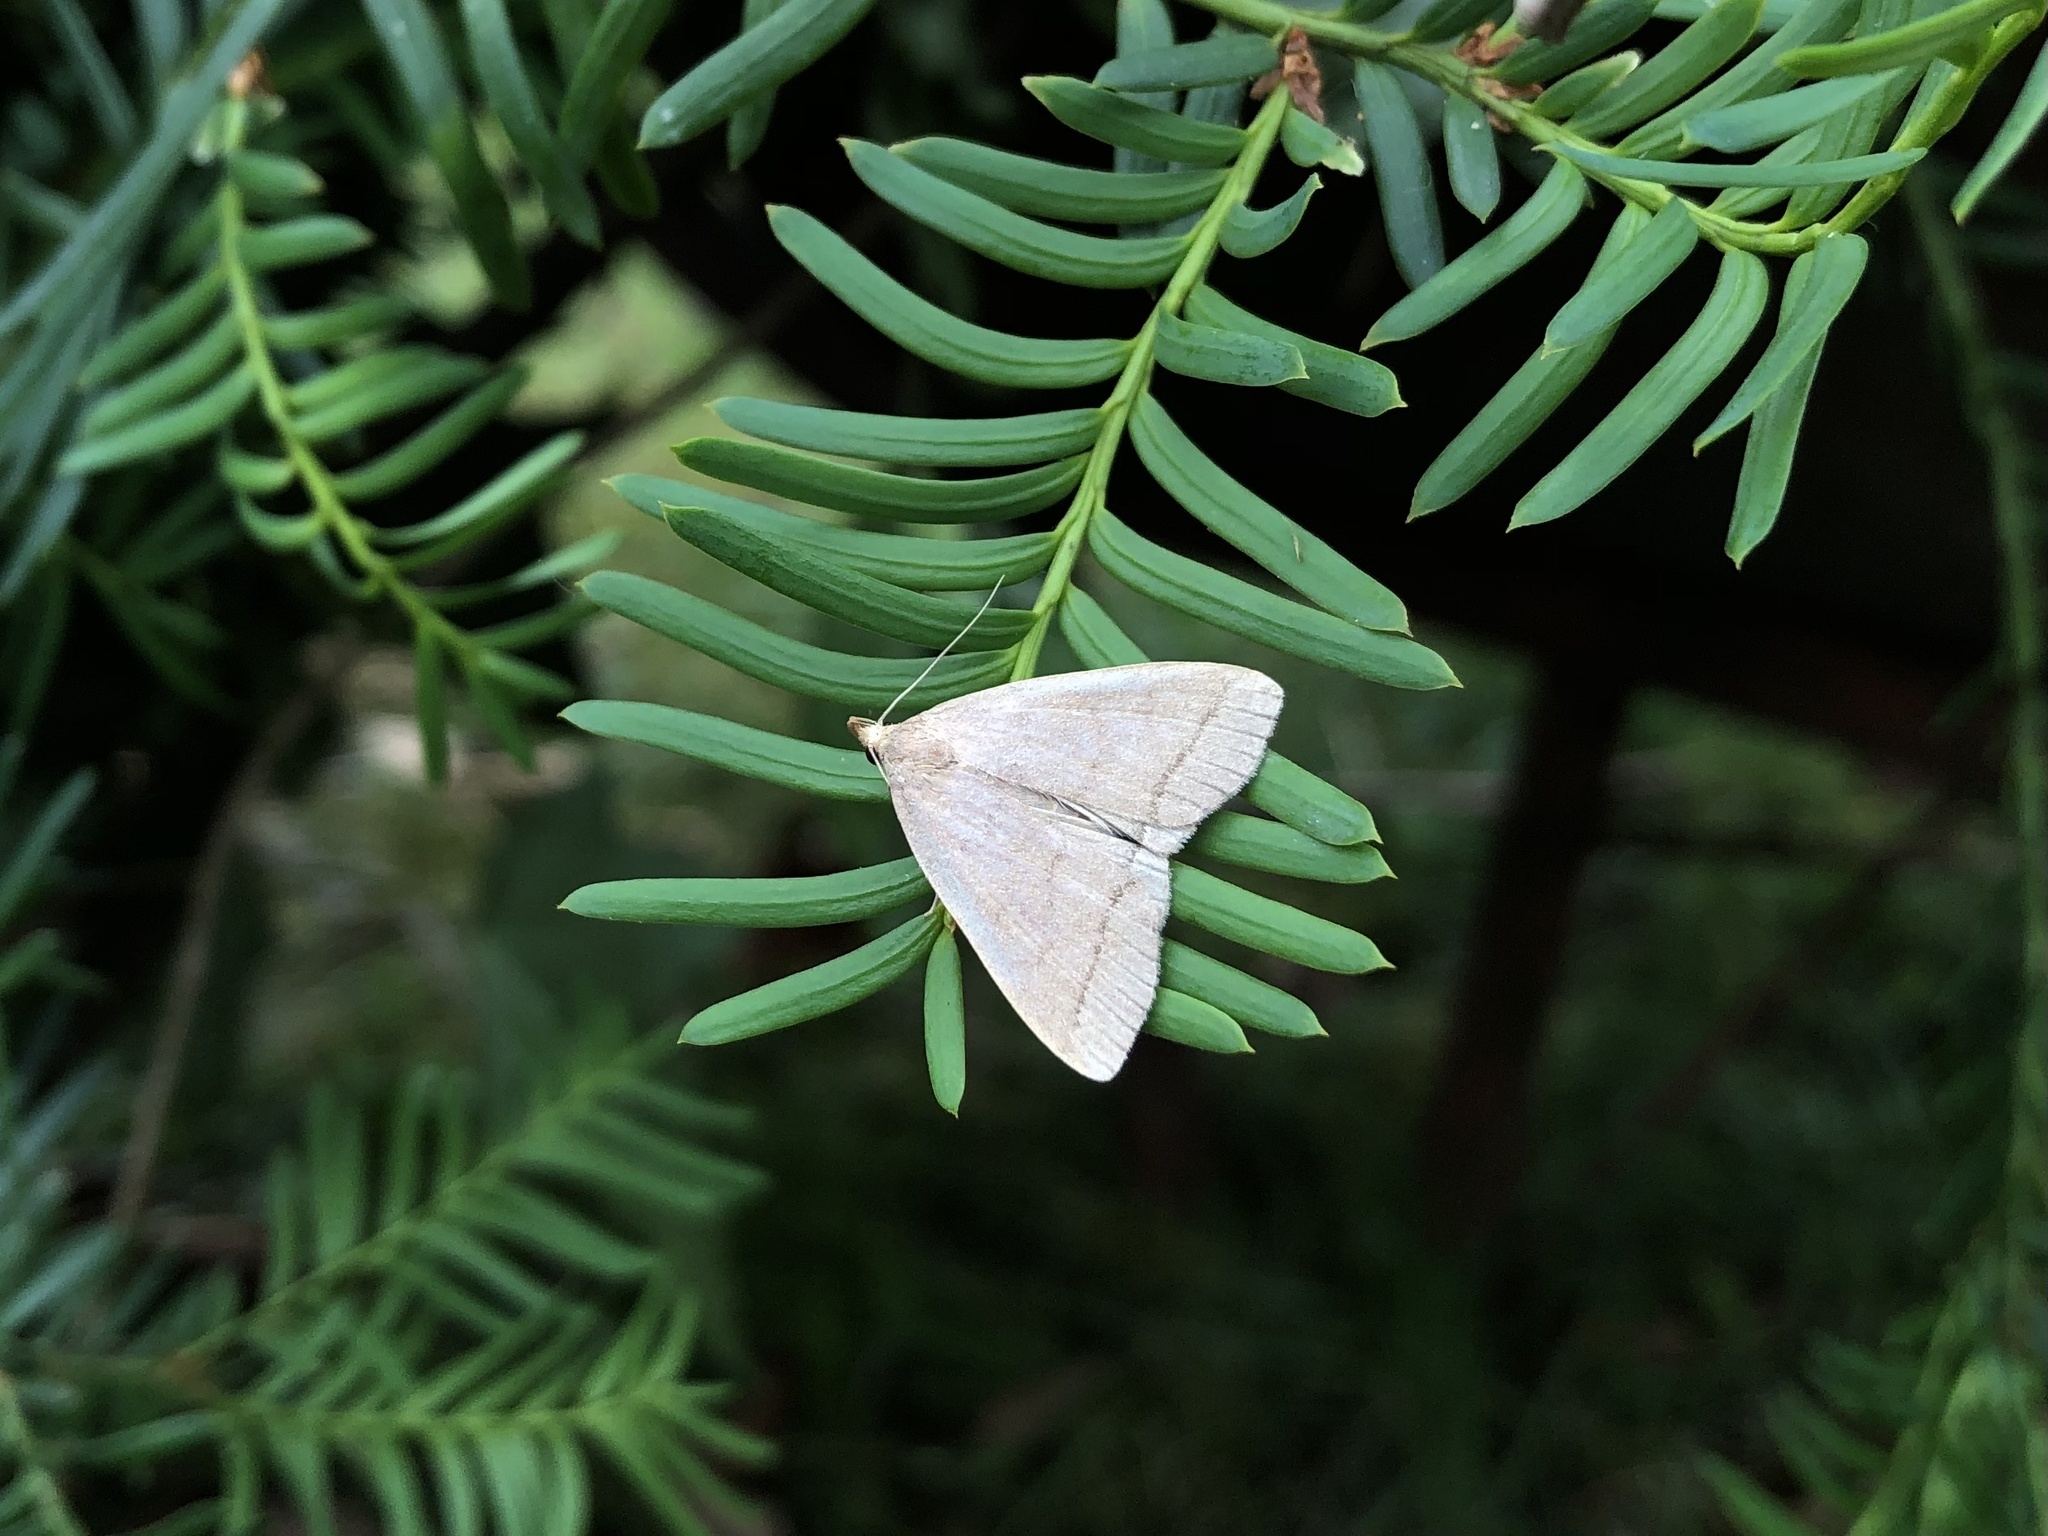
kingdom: Animalia
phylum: Arthropoda
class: Insecta
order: Lepidoptera
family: Erebidae
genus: Herminia
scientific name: Herminia tarsipennalis
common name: Fan-foot
